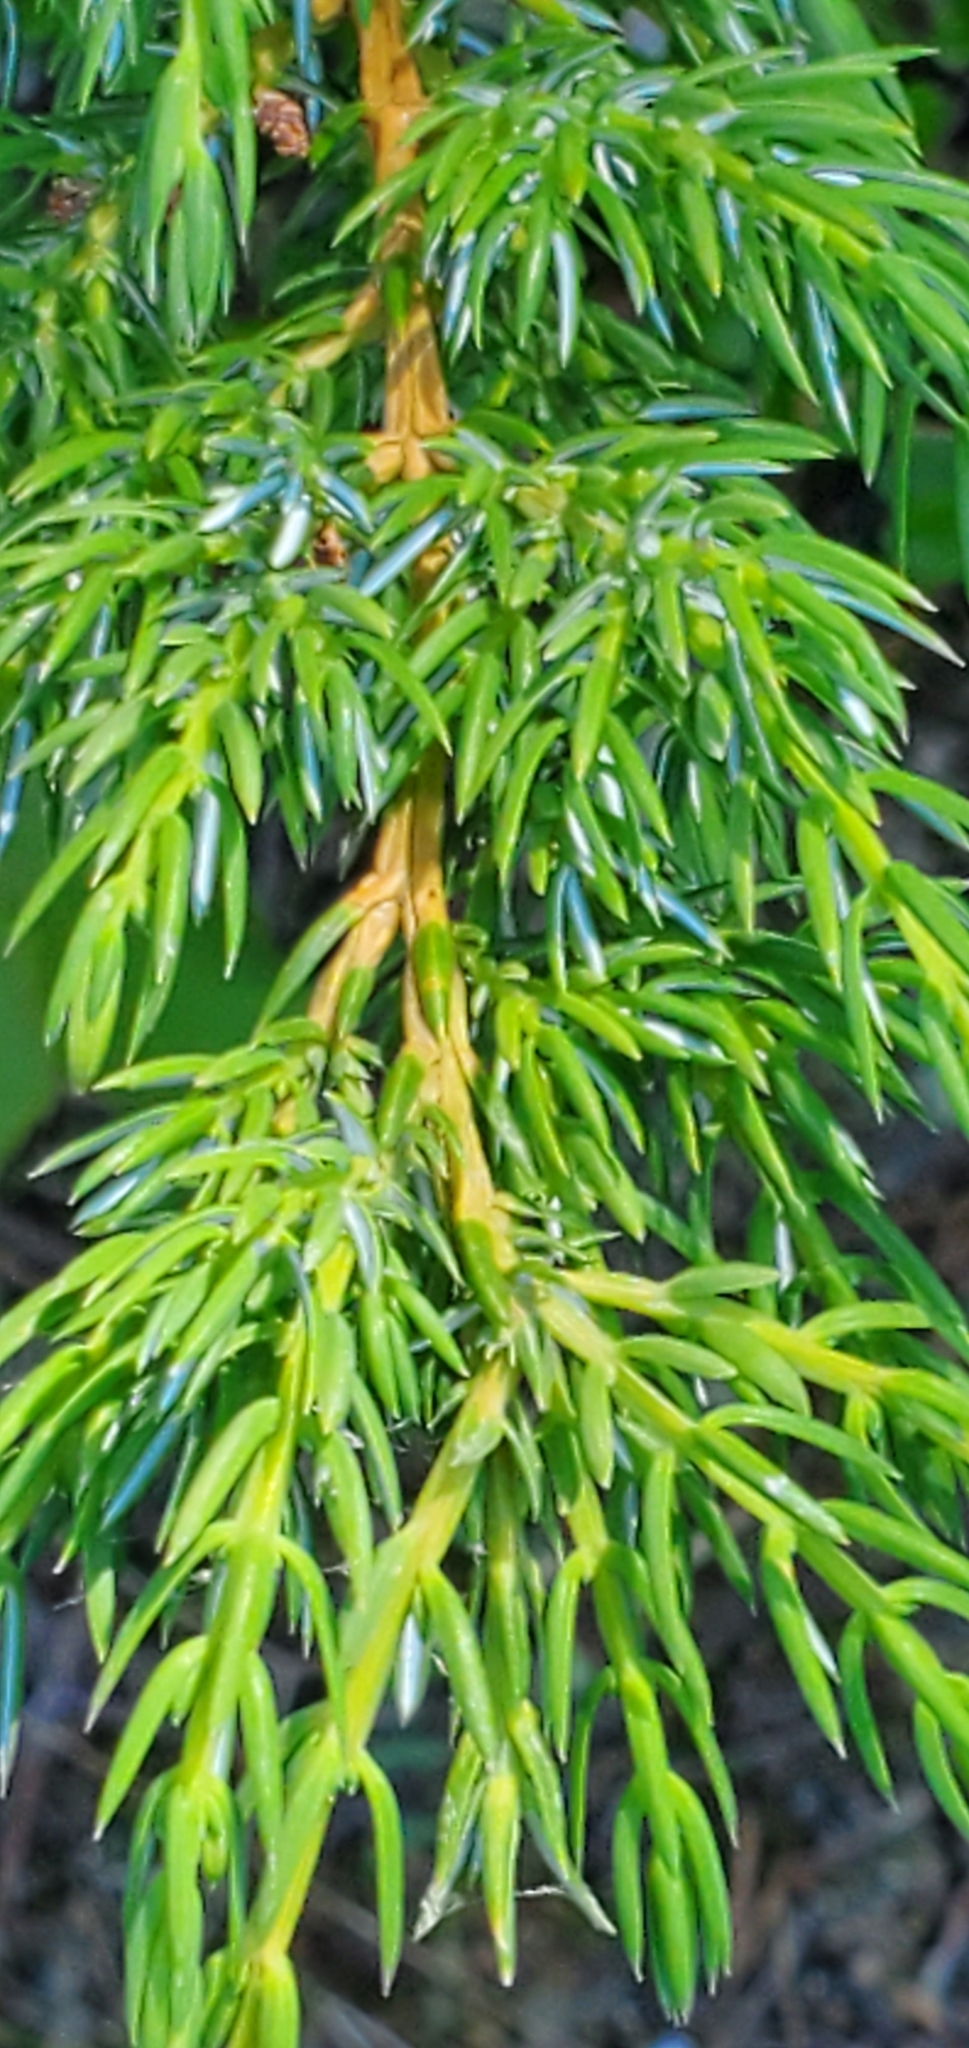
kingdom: Plantae
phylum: Tracheophyta
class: Pinopsida
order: Pinales
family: Cupressaceae
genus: Juniperus
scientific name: Juniperus communis
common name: Common juniper
